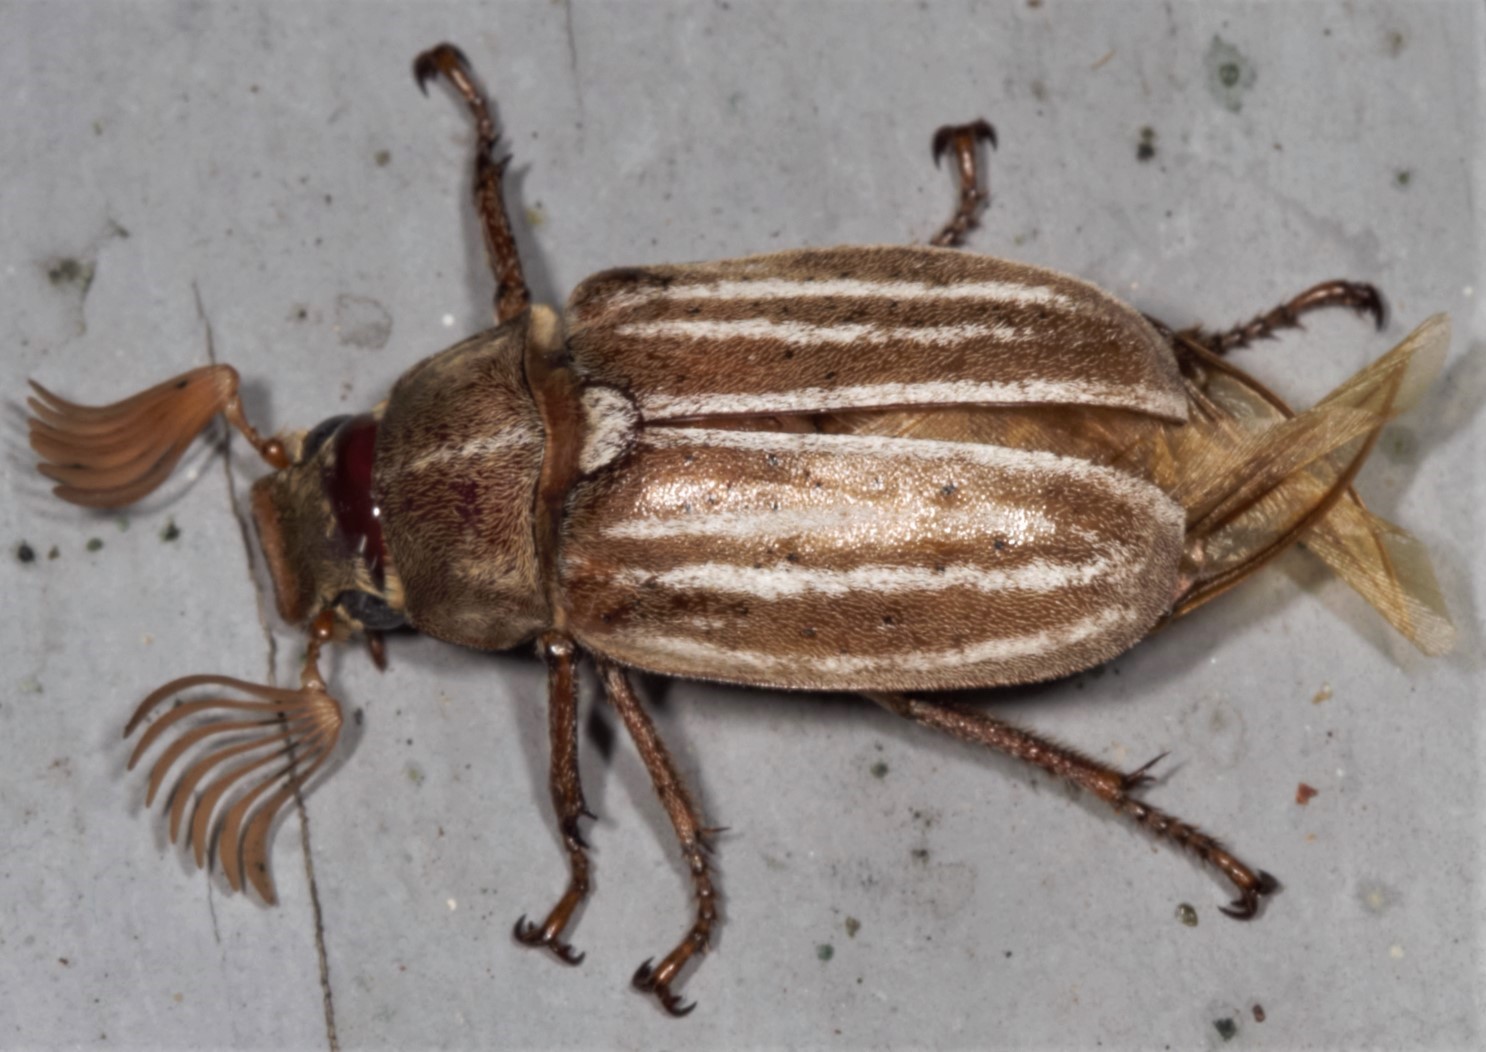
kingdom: Animalia
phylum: Arthropoda
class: Insecta
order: Coleoptera
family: Scarabaeidae
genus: Polyphylla
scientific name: Polyphylla occidentalis
